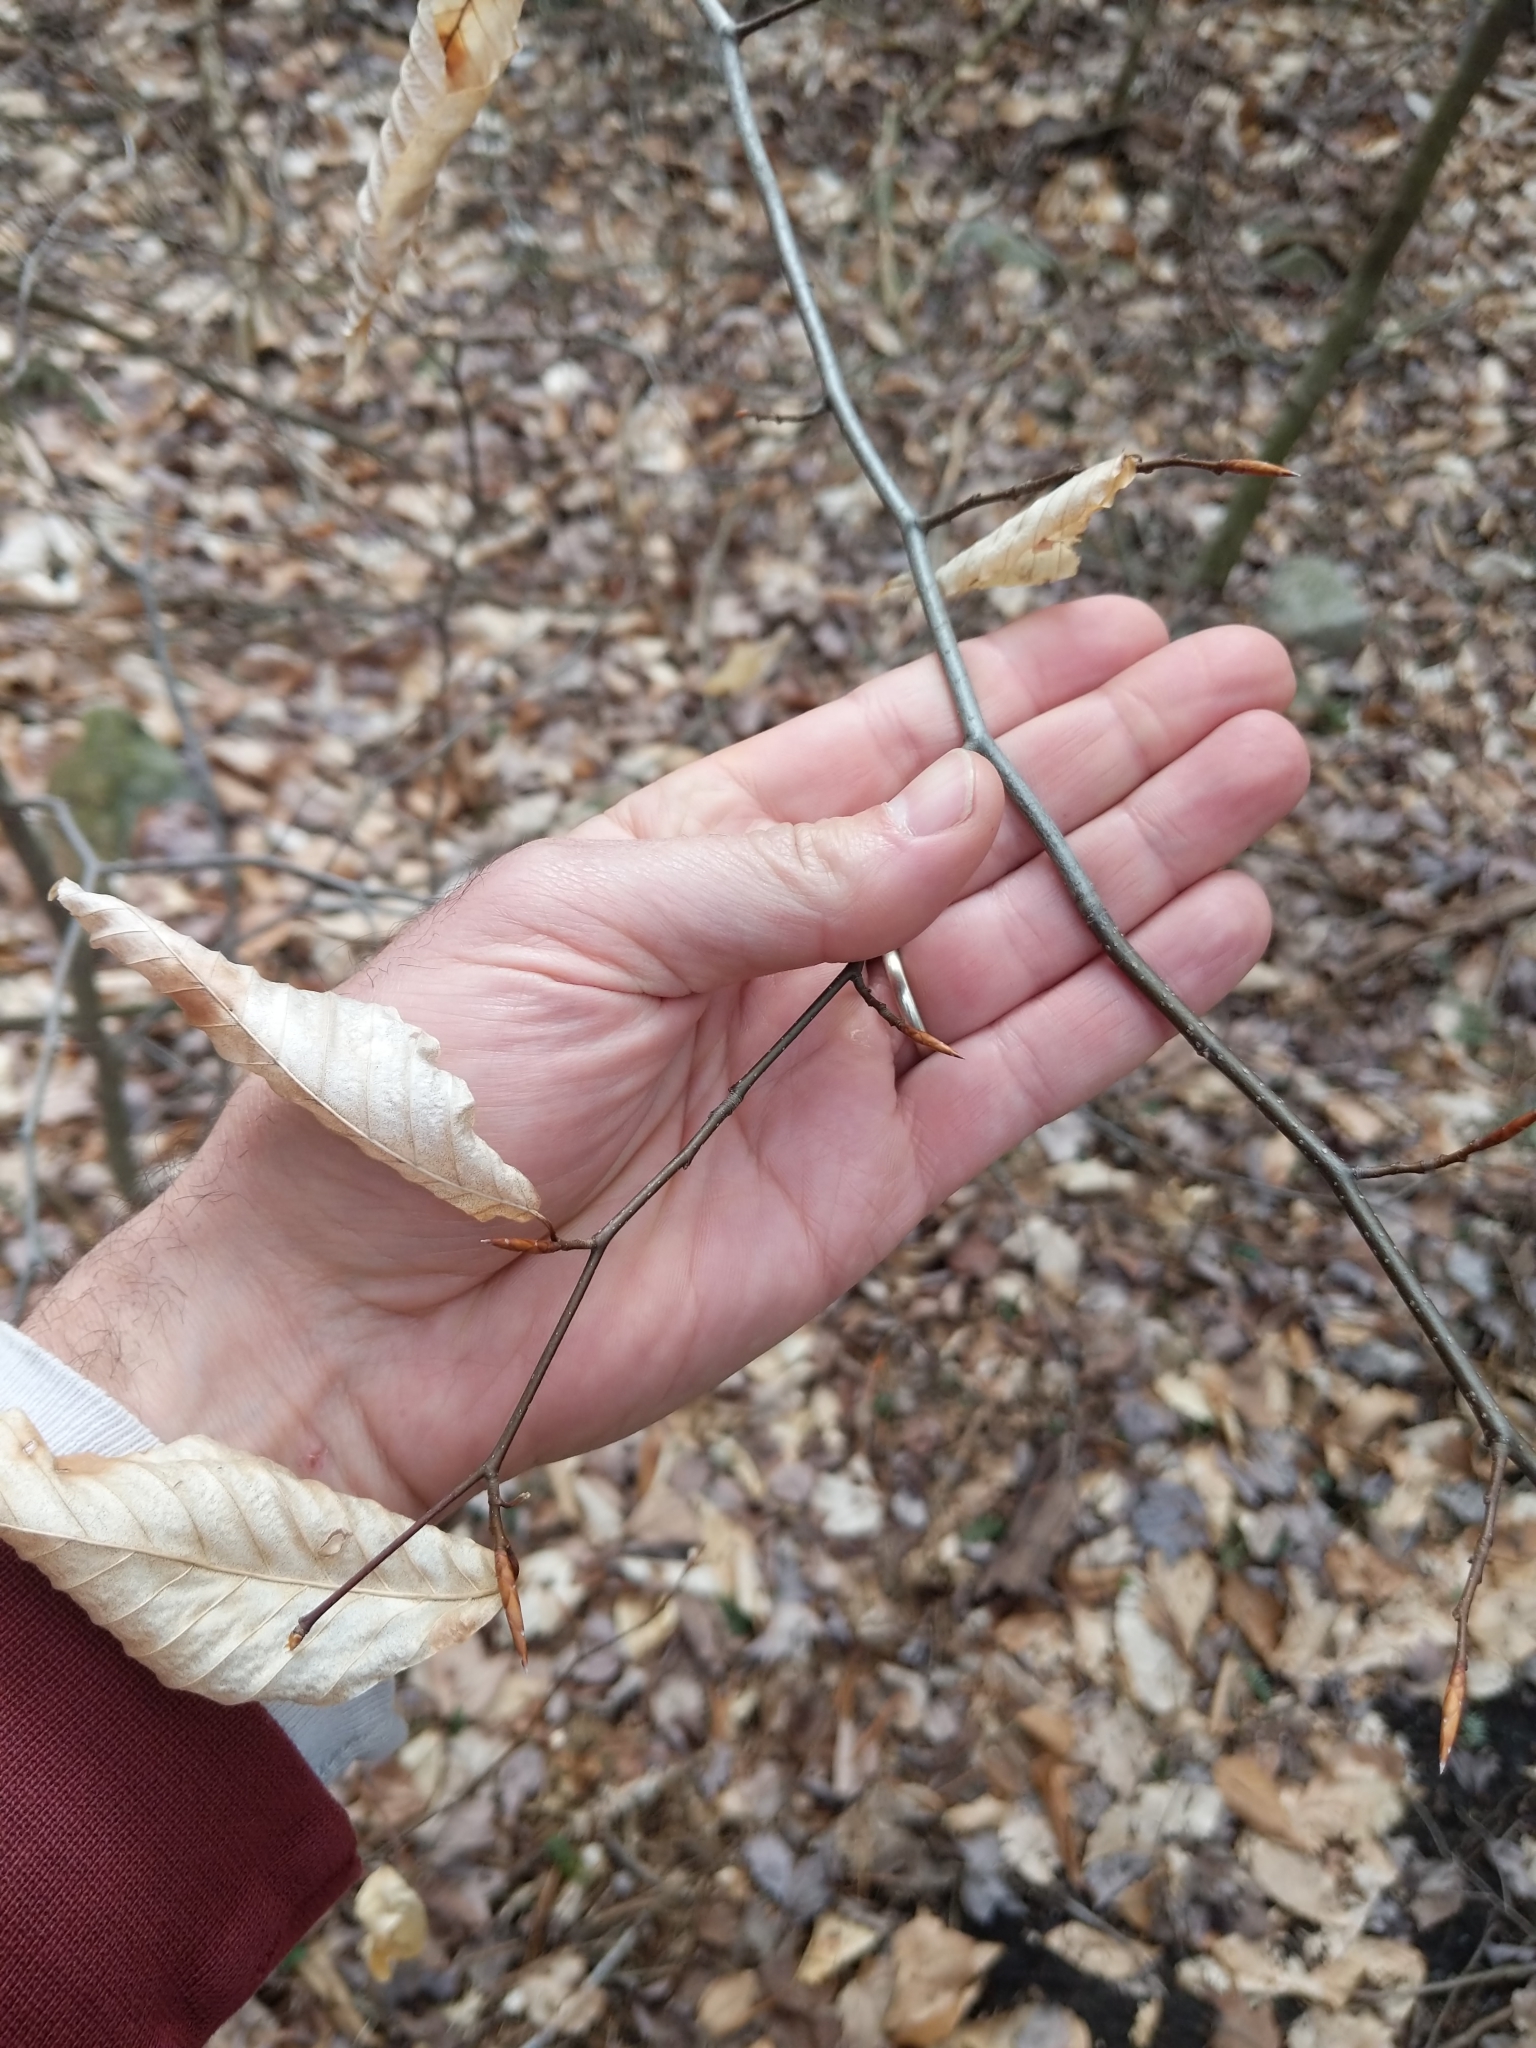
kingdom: Plantae
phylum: Tracheophyta
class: Magnoliopsida
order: Fagales
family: Fagaceae
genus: Fagus
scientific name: Fagus grandifolia
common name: American beech
